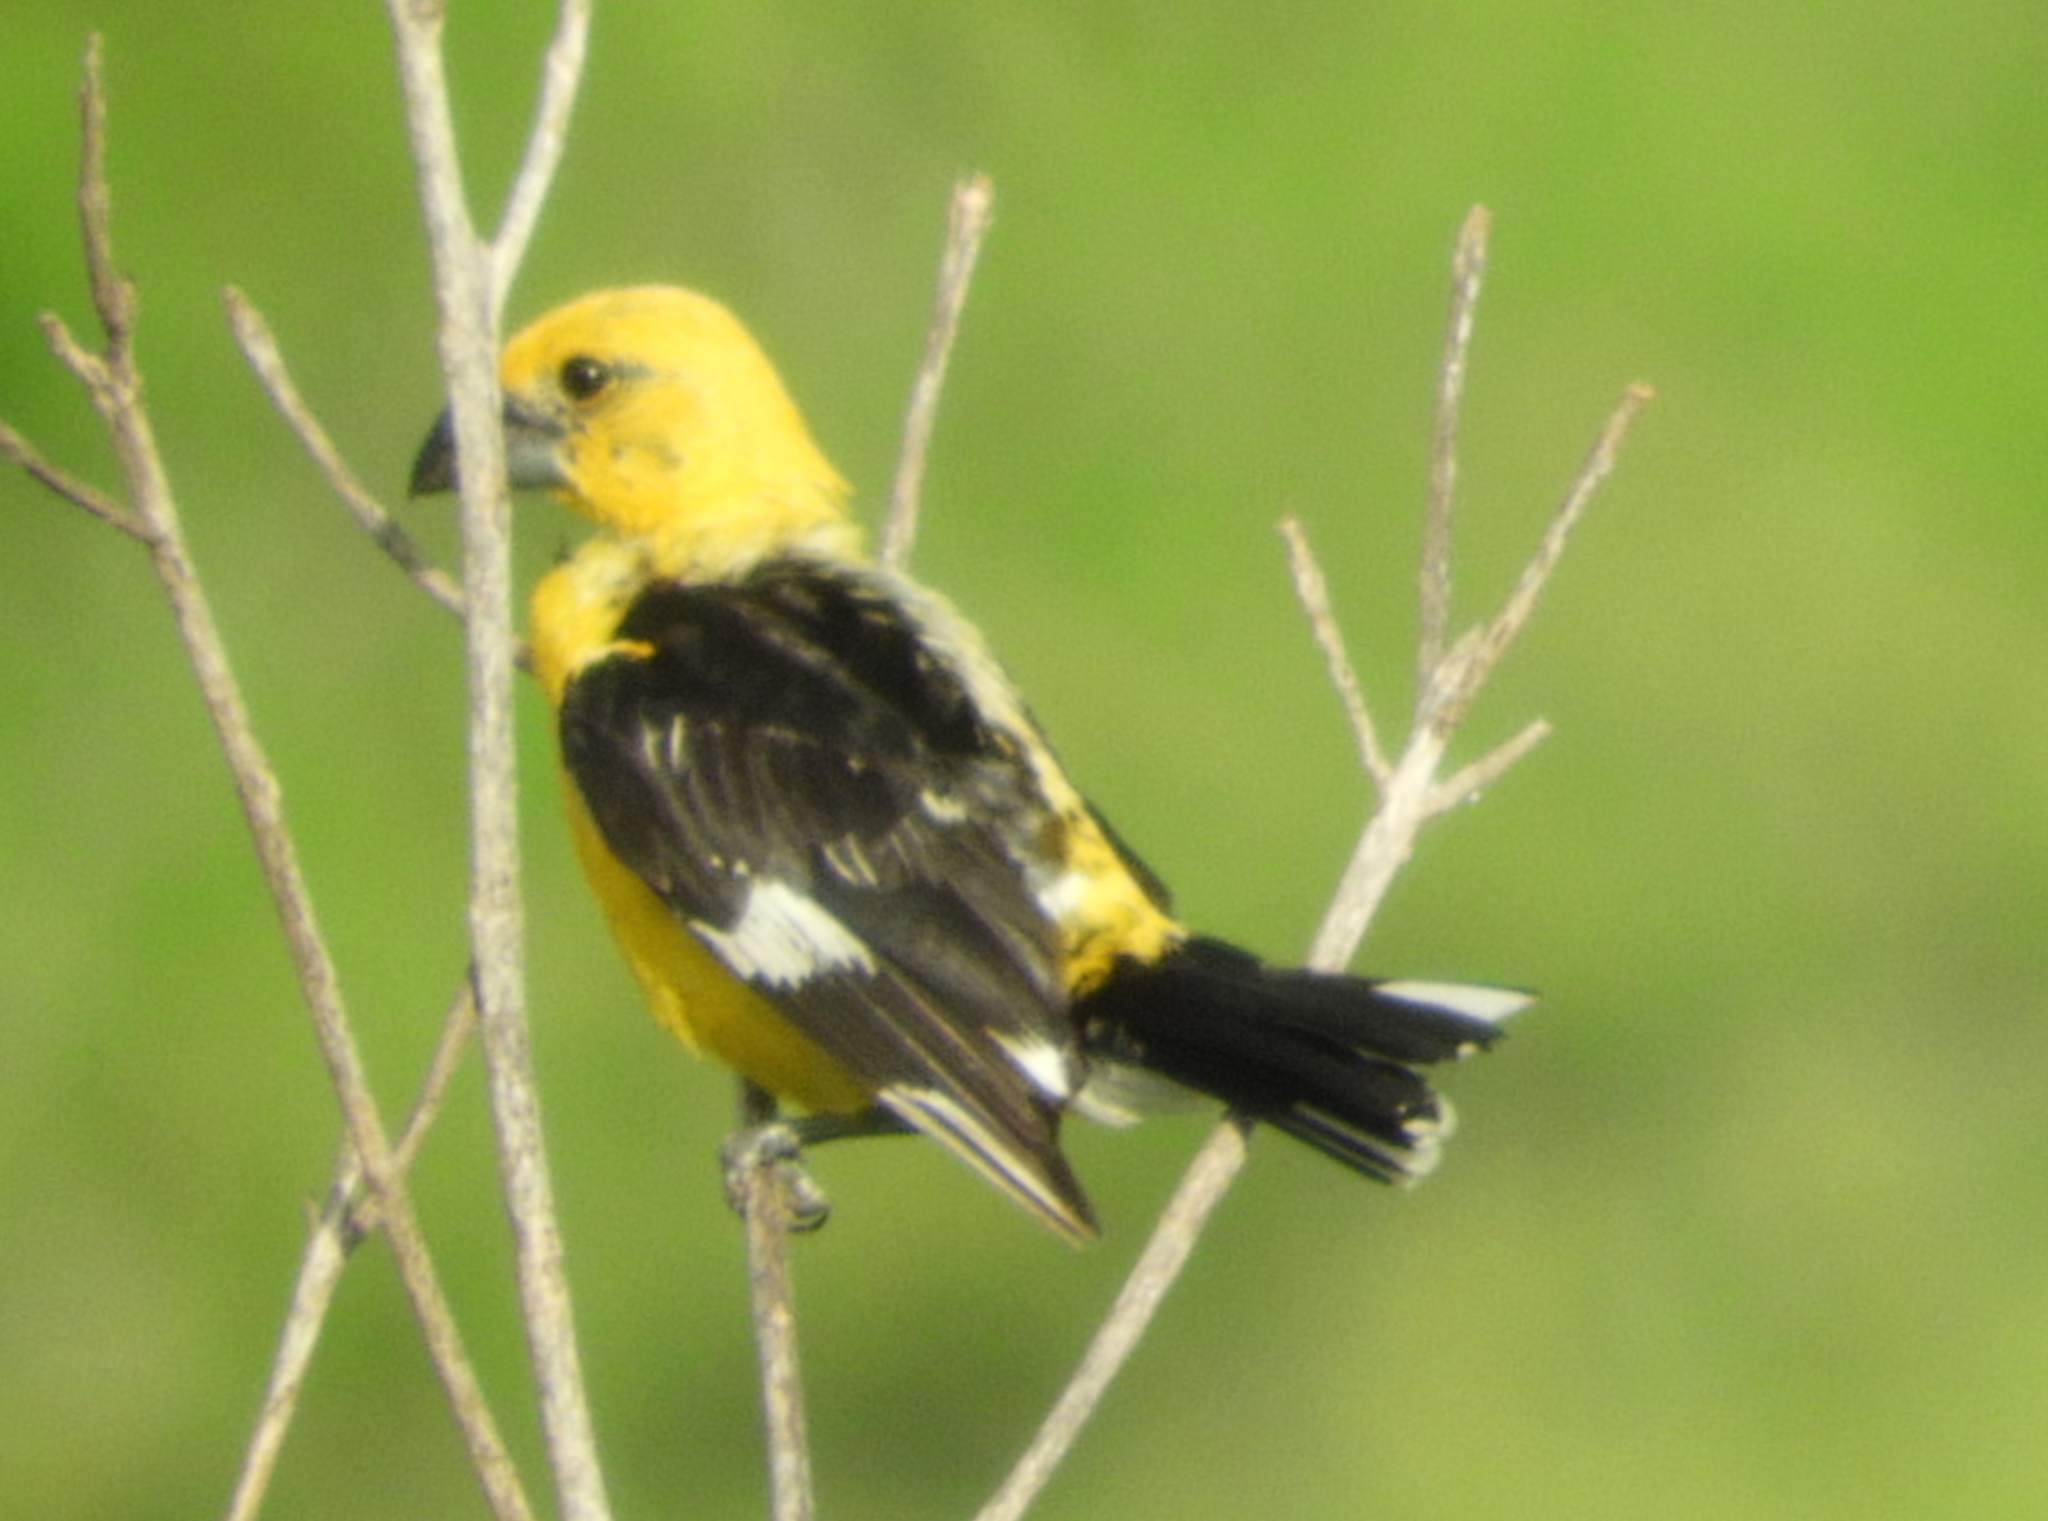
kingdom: Animalia
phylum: Chordata
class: Aves
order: Passeriformes
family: Cardinalidae
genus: Pheucticus
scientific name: Pheucticus chrysopeplus
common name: Yellow grosbeak
